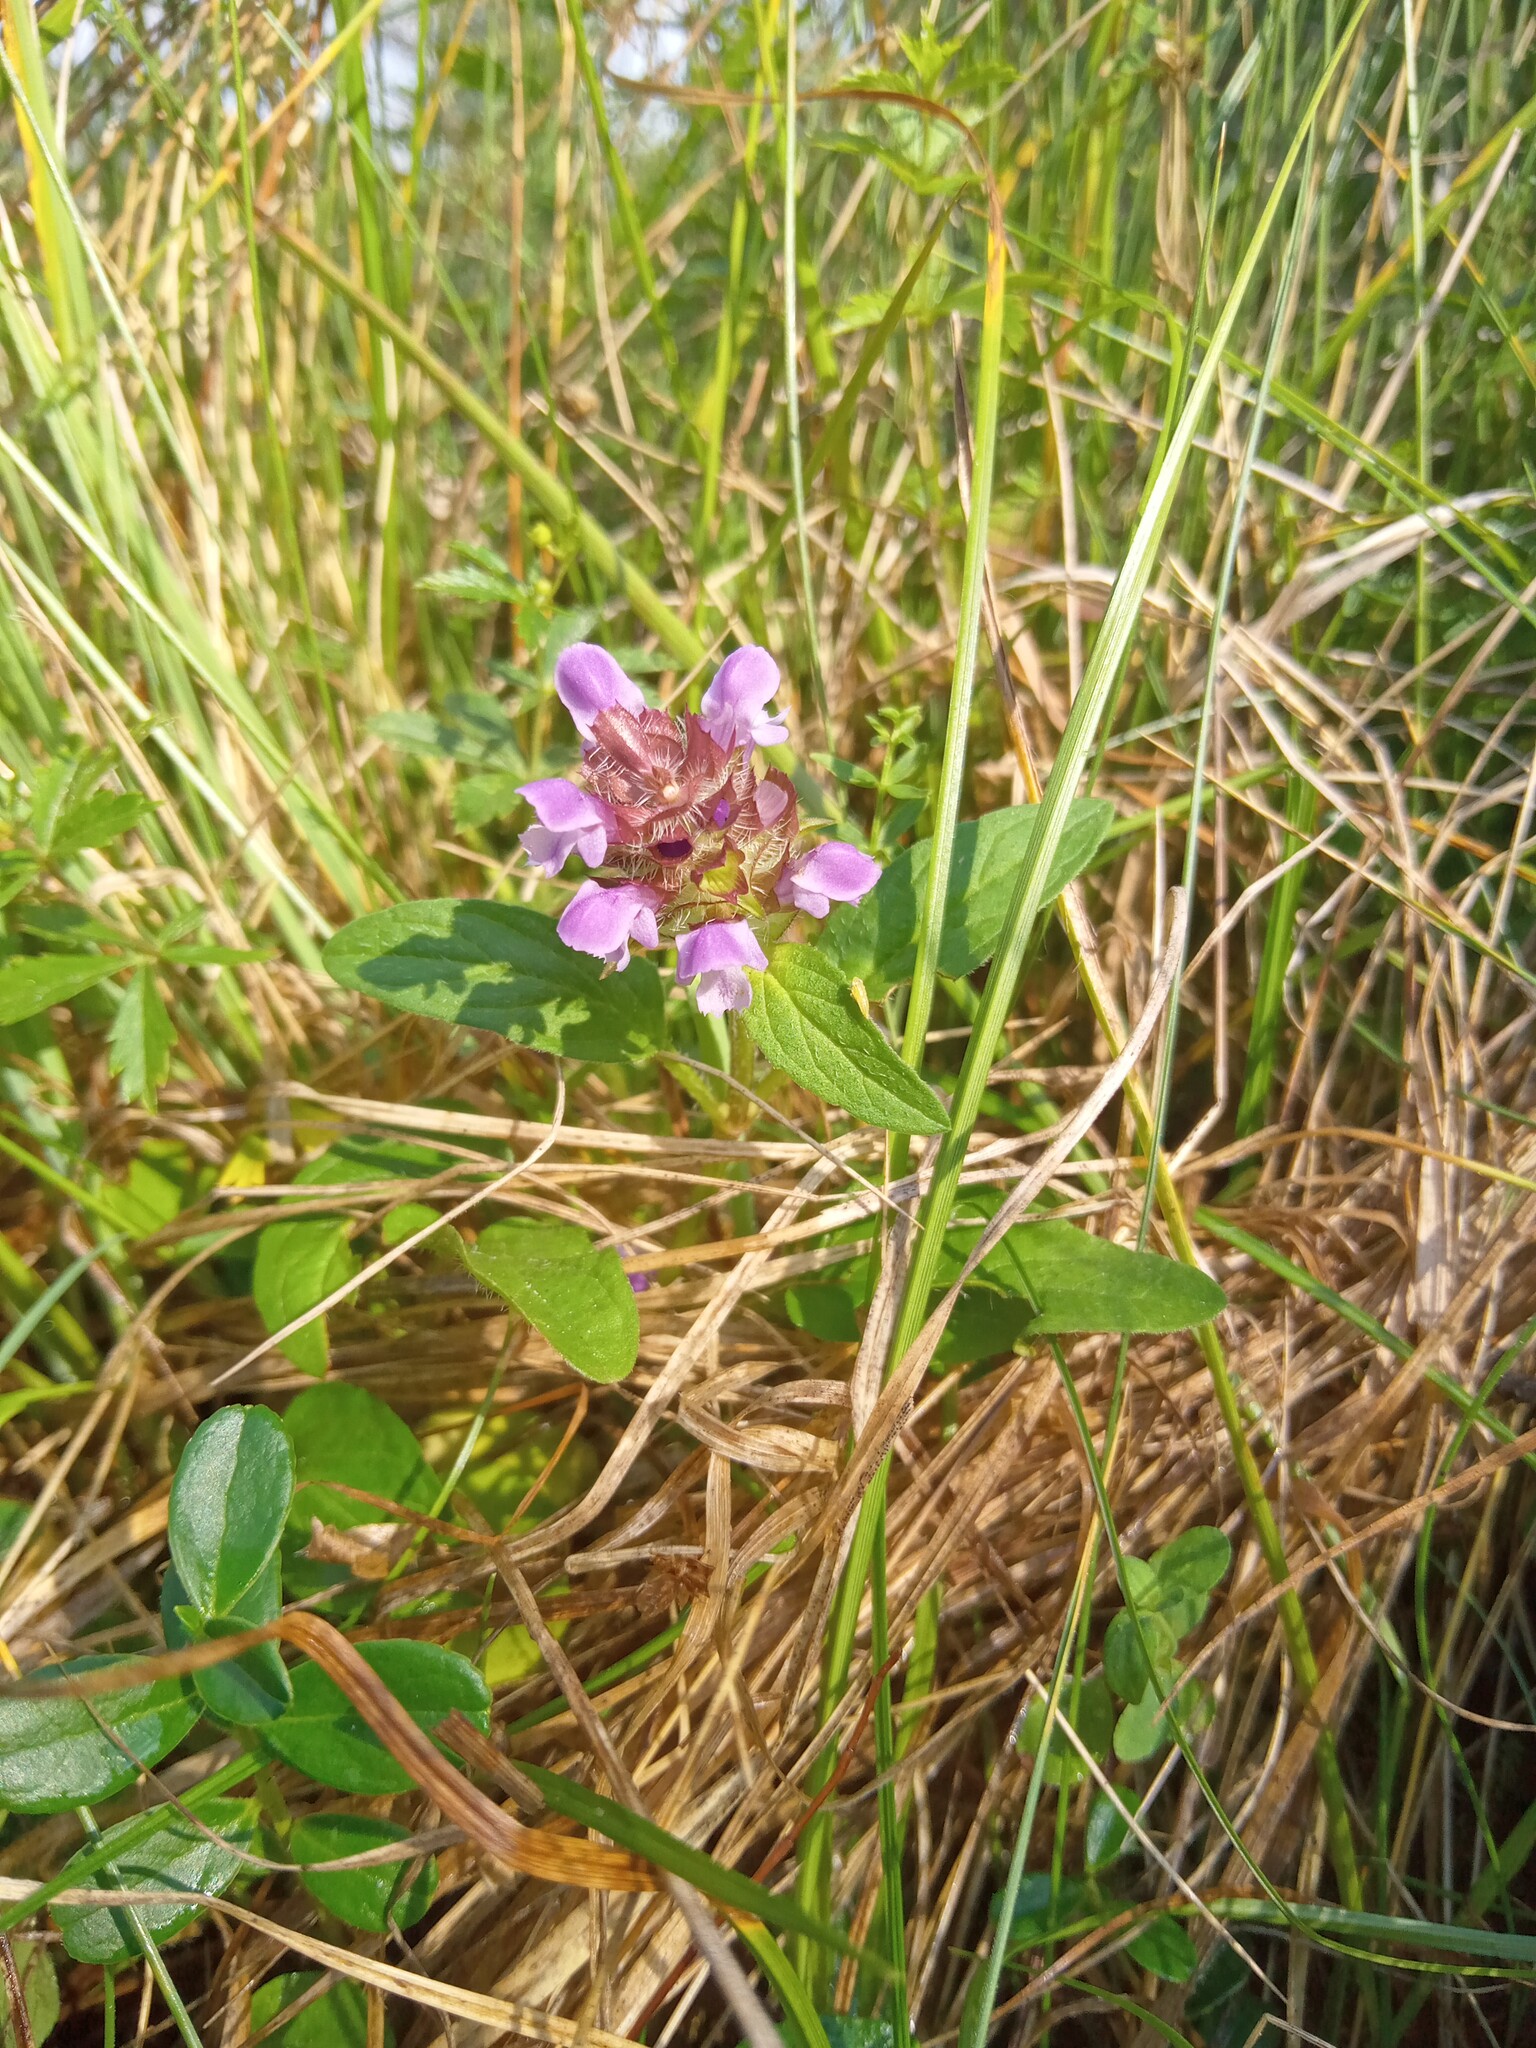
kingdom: Plantae
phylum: Tracheophyta
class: Magnoliopsida
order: Lamiales
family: Lamiaceae
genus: Prunella
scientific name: Prunella vulgaris
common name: Heal-all
